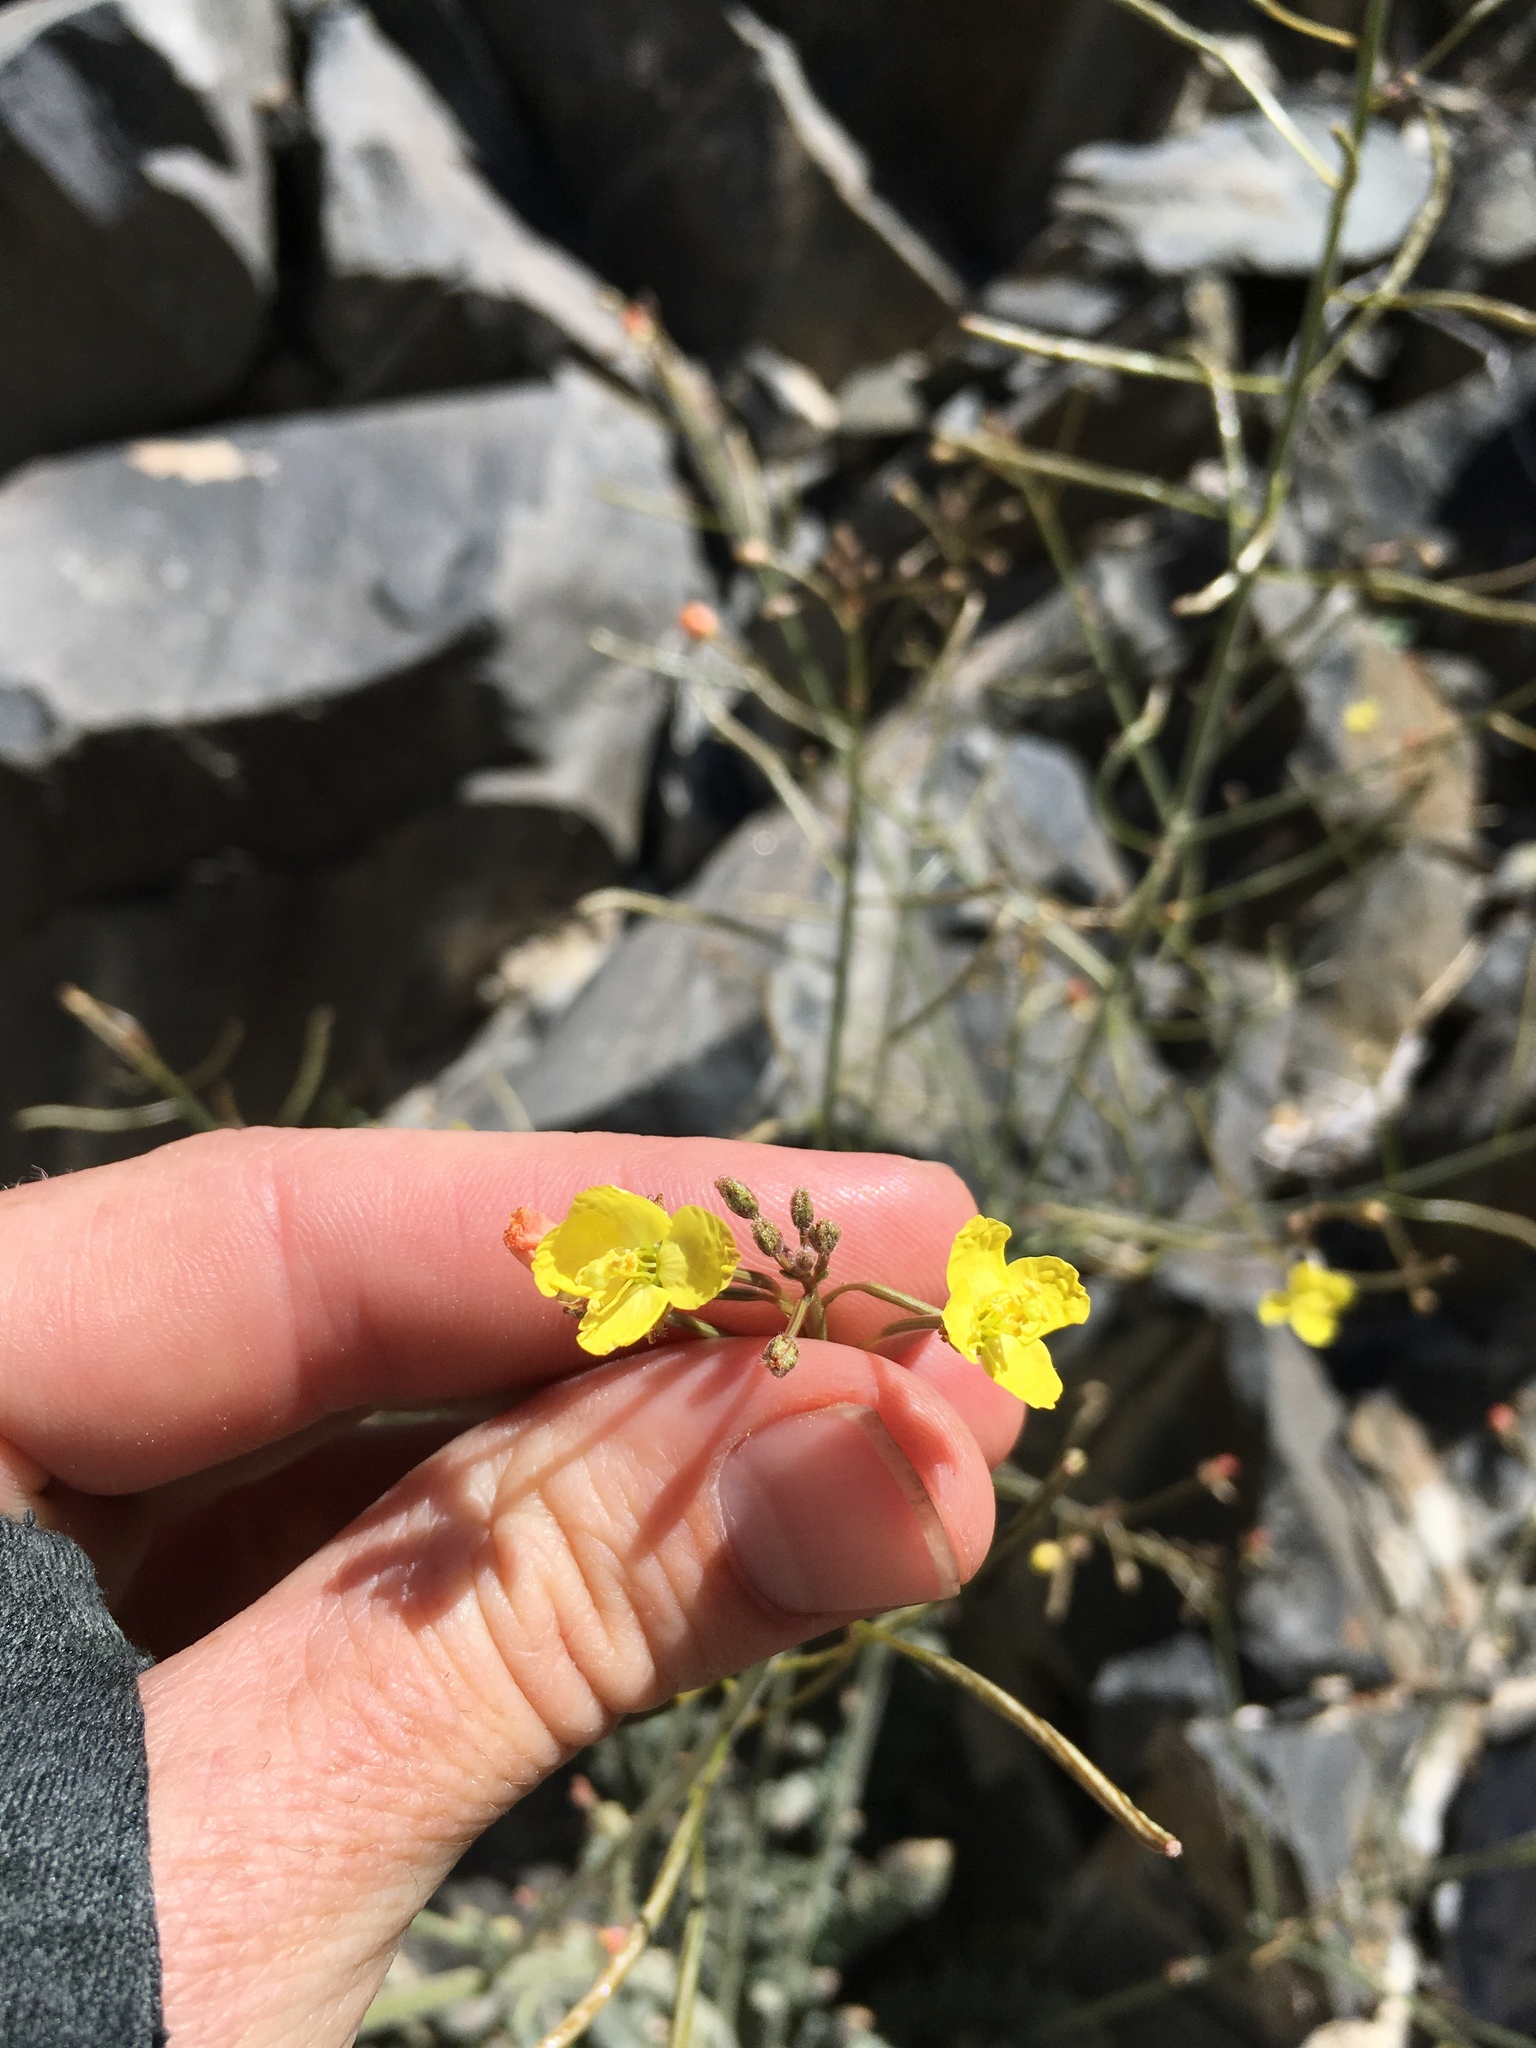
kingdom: Plantae
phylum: Tracheophyta
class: Magnoliopsida
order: Myrtales
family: Onagraceae
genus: Chylismia
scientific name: Chylismia walkeri
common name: Walker's suncup
